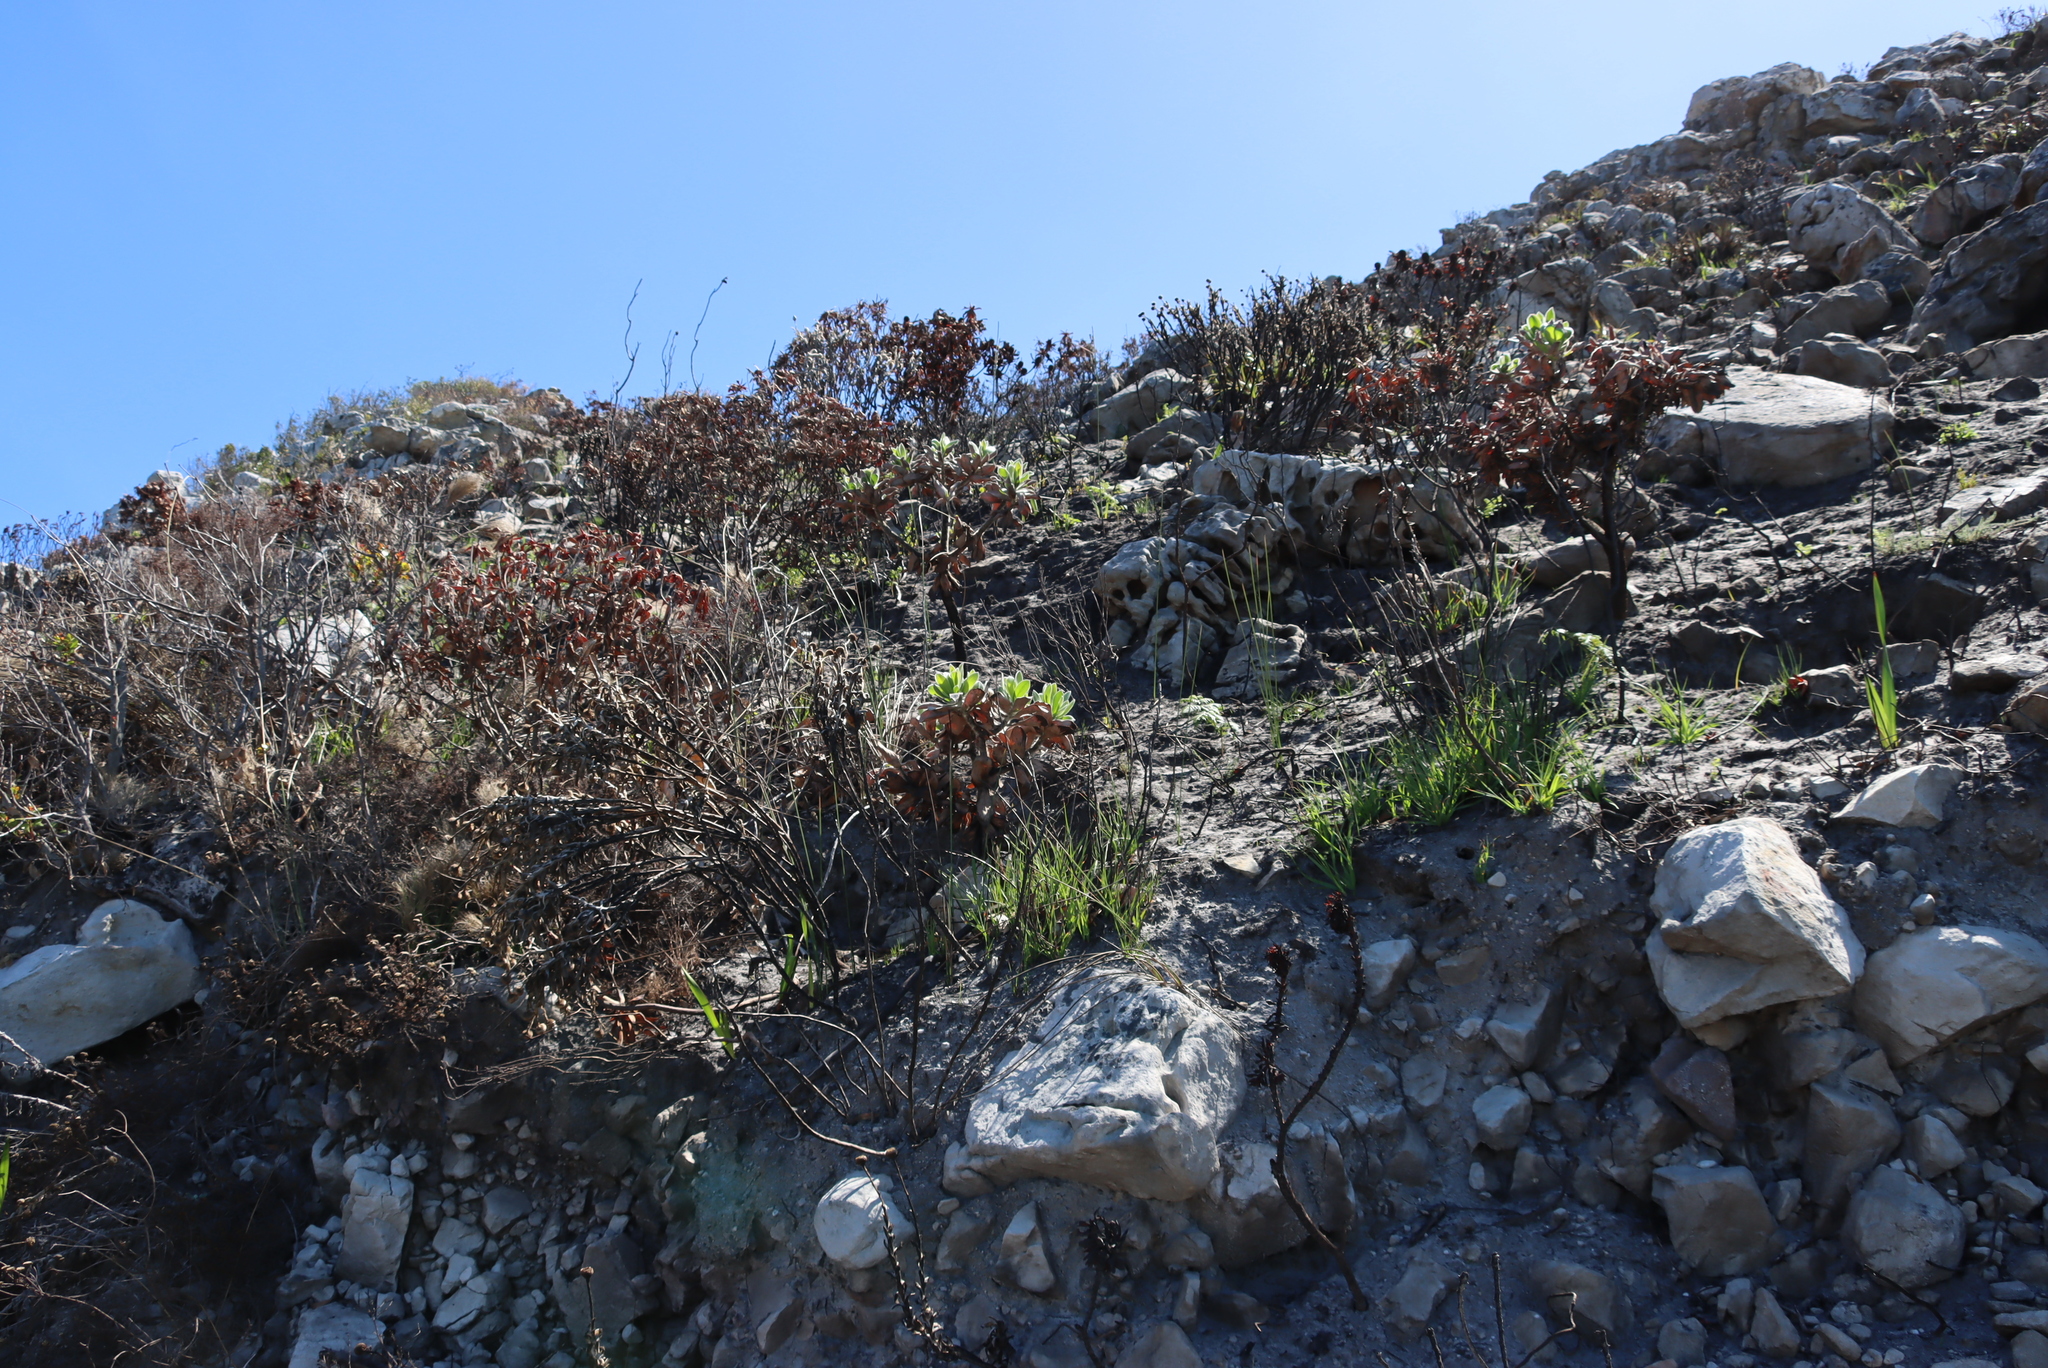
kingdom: Plantae
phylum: Tracheophyta
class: Magnoliopsida
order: Proteales
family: Proteaceae
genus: Leucospermum
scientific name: Leucospermum conocarpodendron
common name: Tree pincushion
